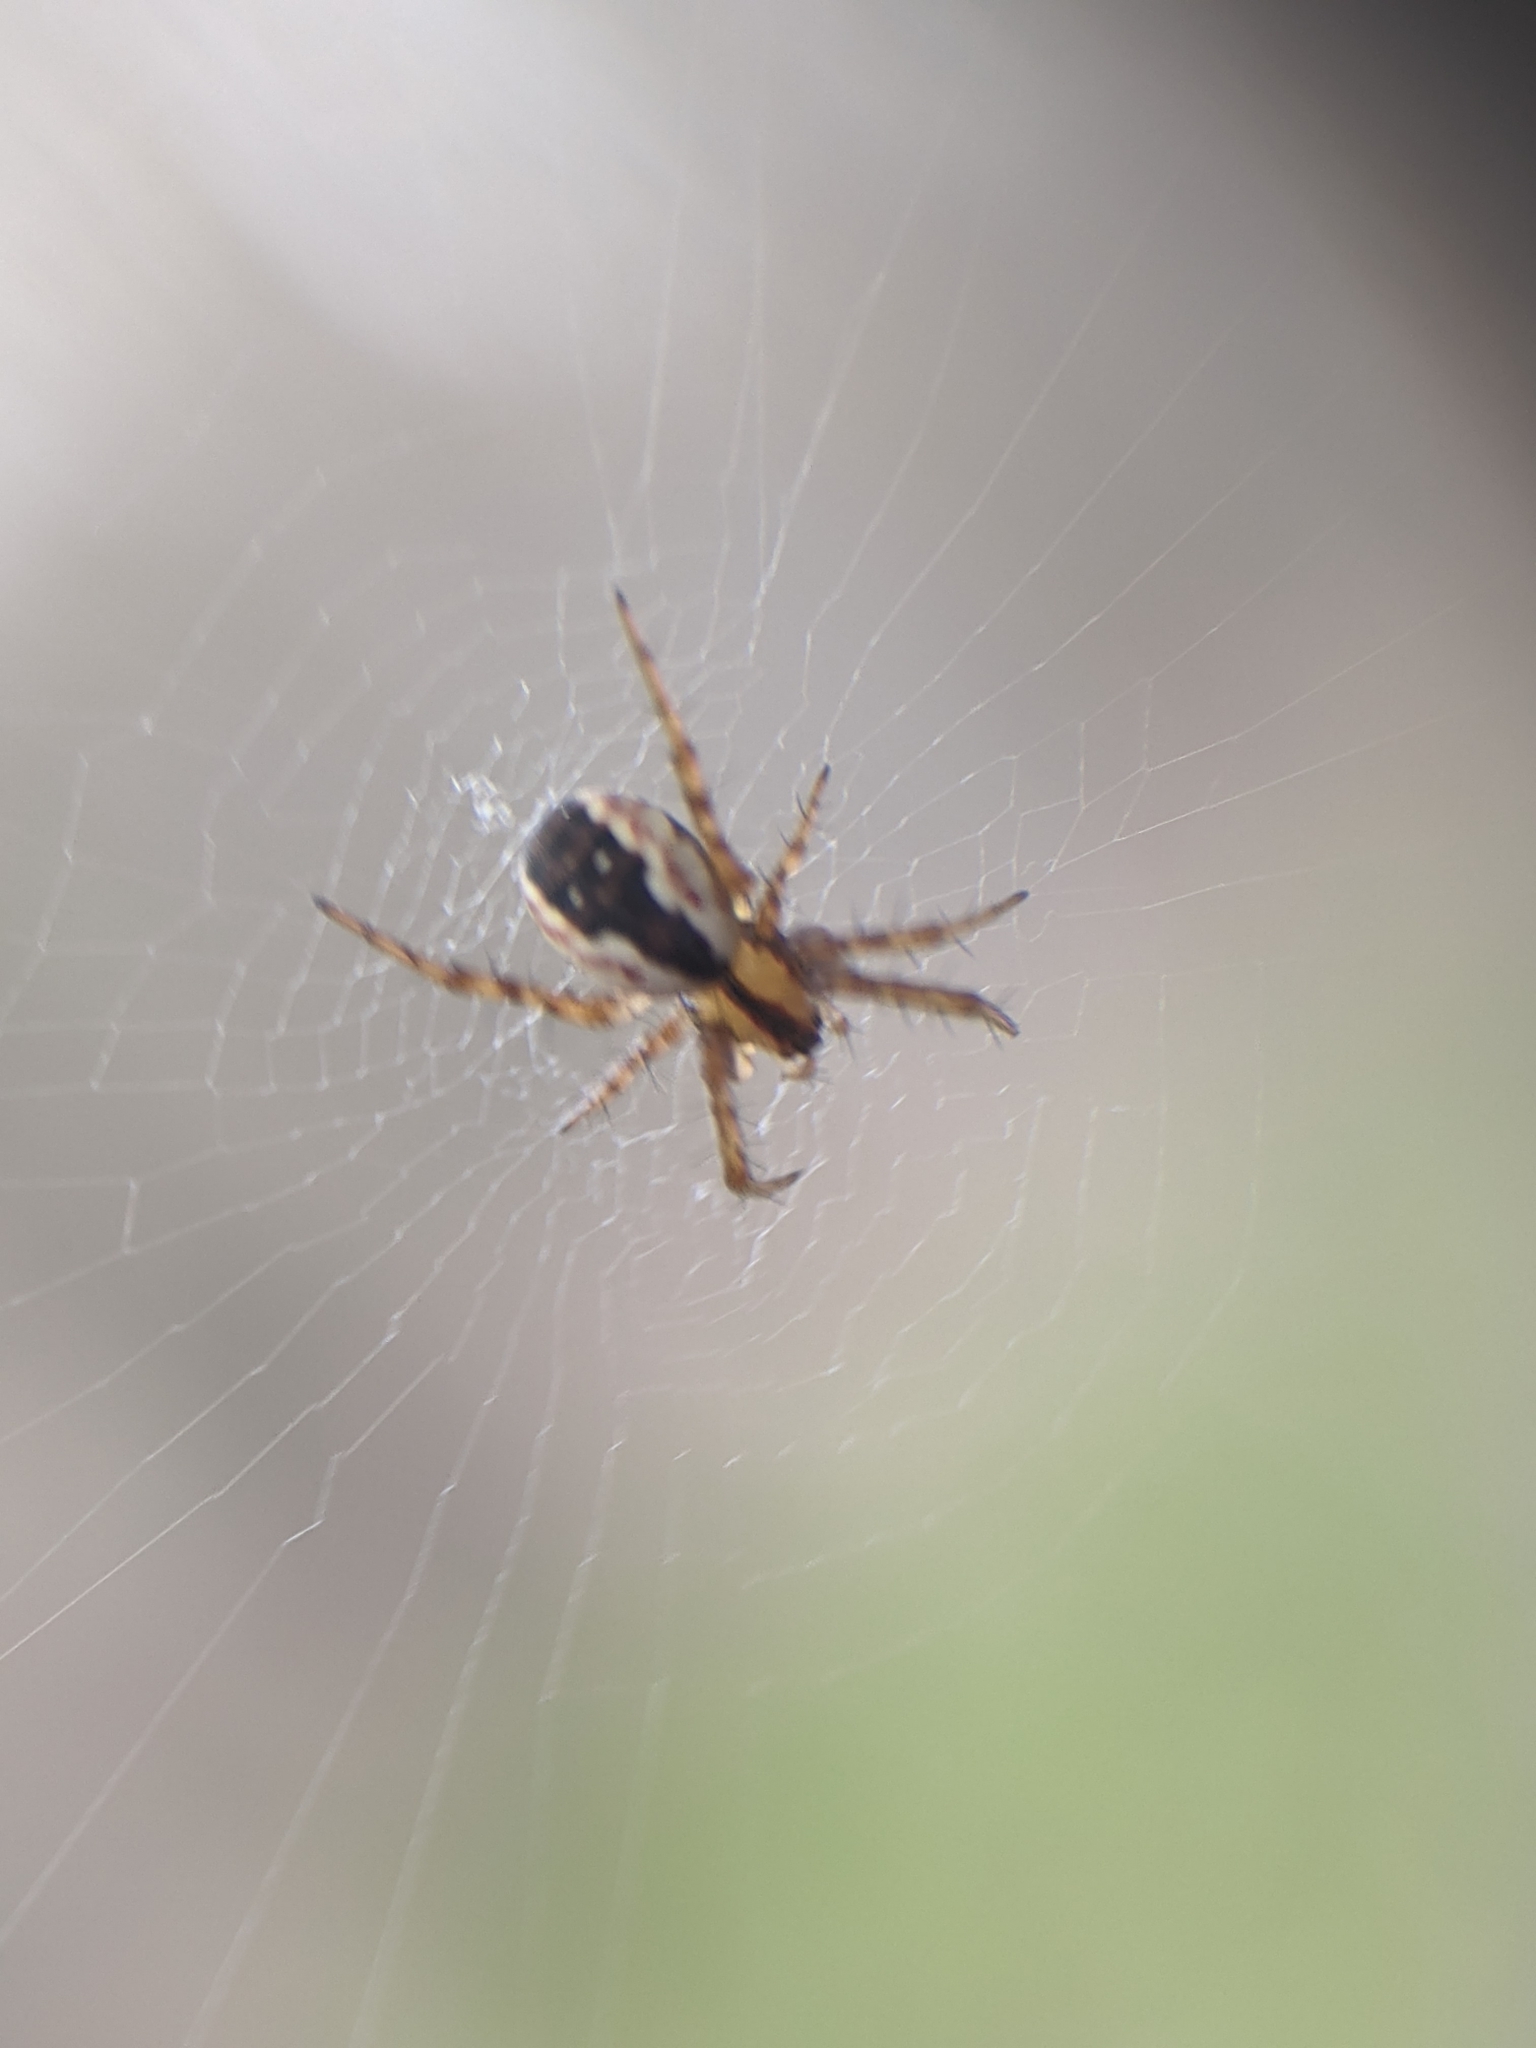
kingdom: Animalia
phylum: Arthropoda
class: Arachnida
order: Araneae
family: Araneidae
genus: Mangora
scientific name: Mangora placida
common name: Tuft-legged orbweaver
